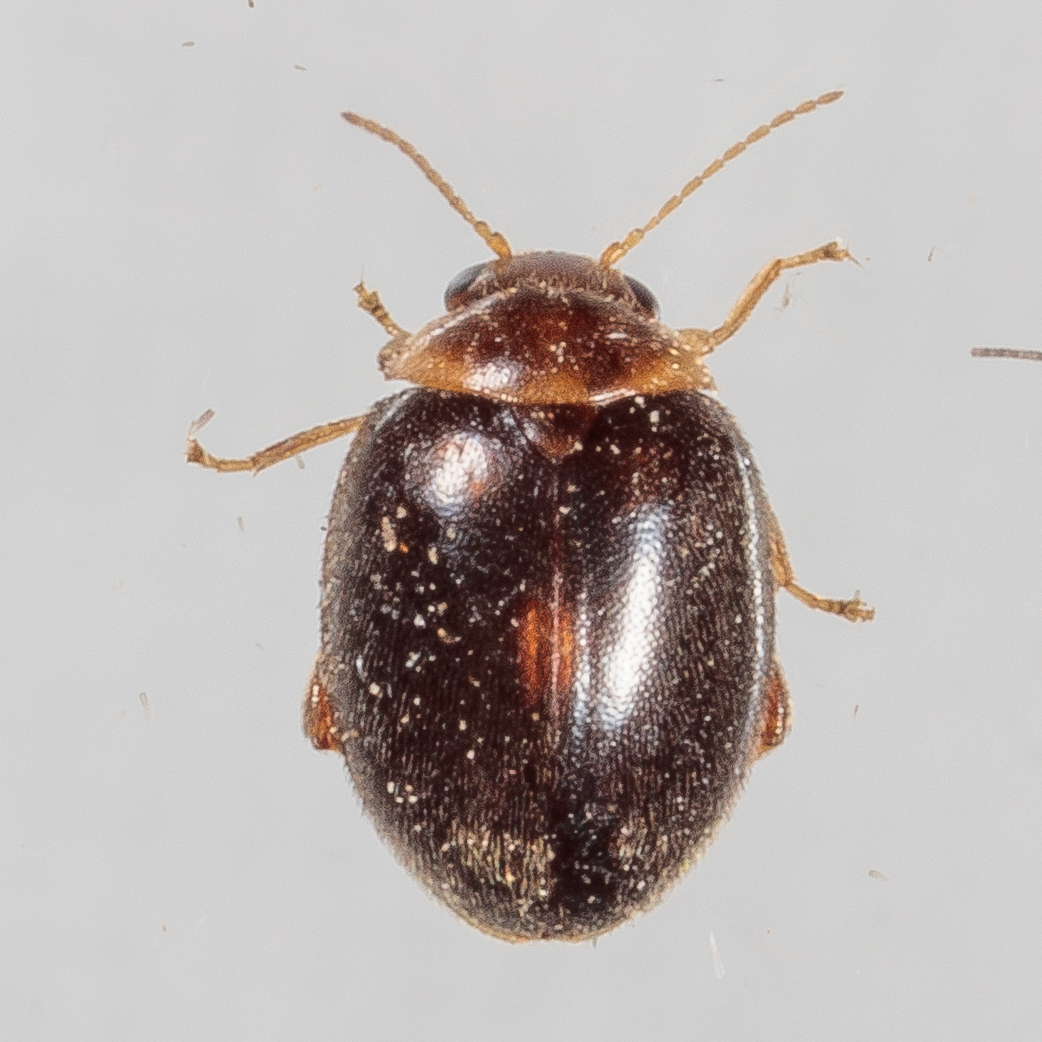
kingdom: Animalia
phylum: Arthropoda
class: Insecta
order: Coleoptera
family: Scirtidae
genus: Scirtes
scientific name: Scirtes orbiculatus
